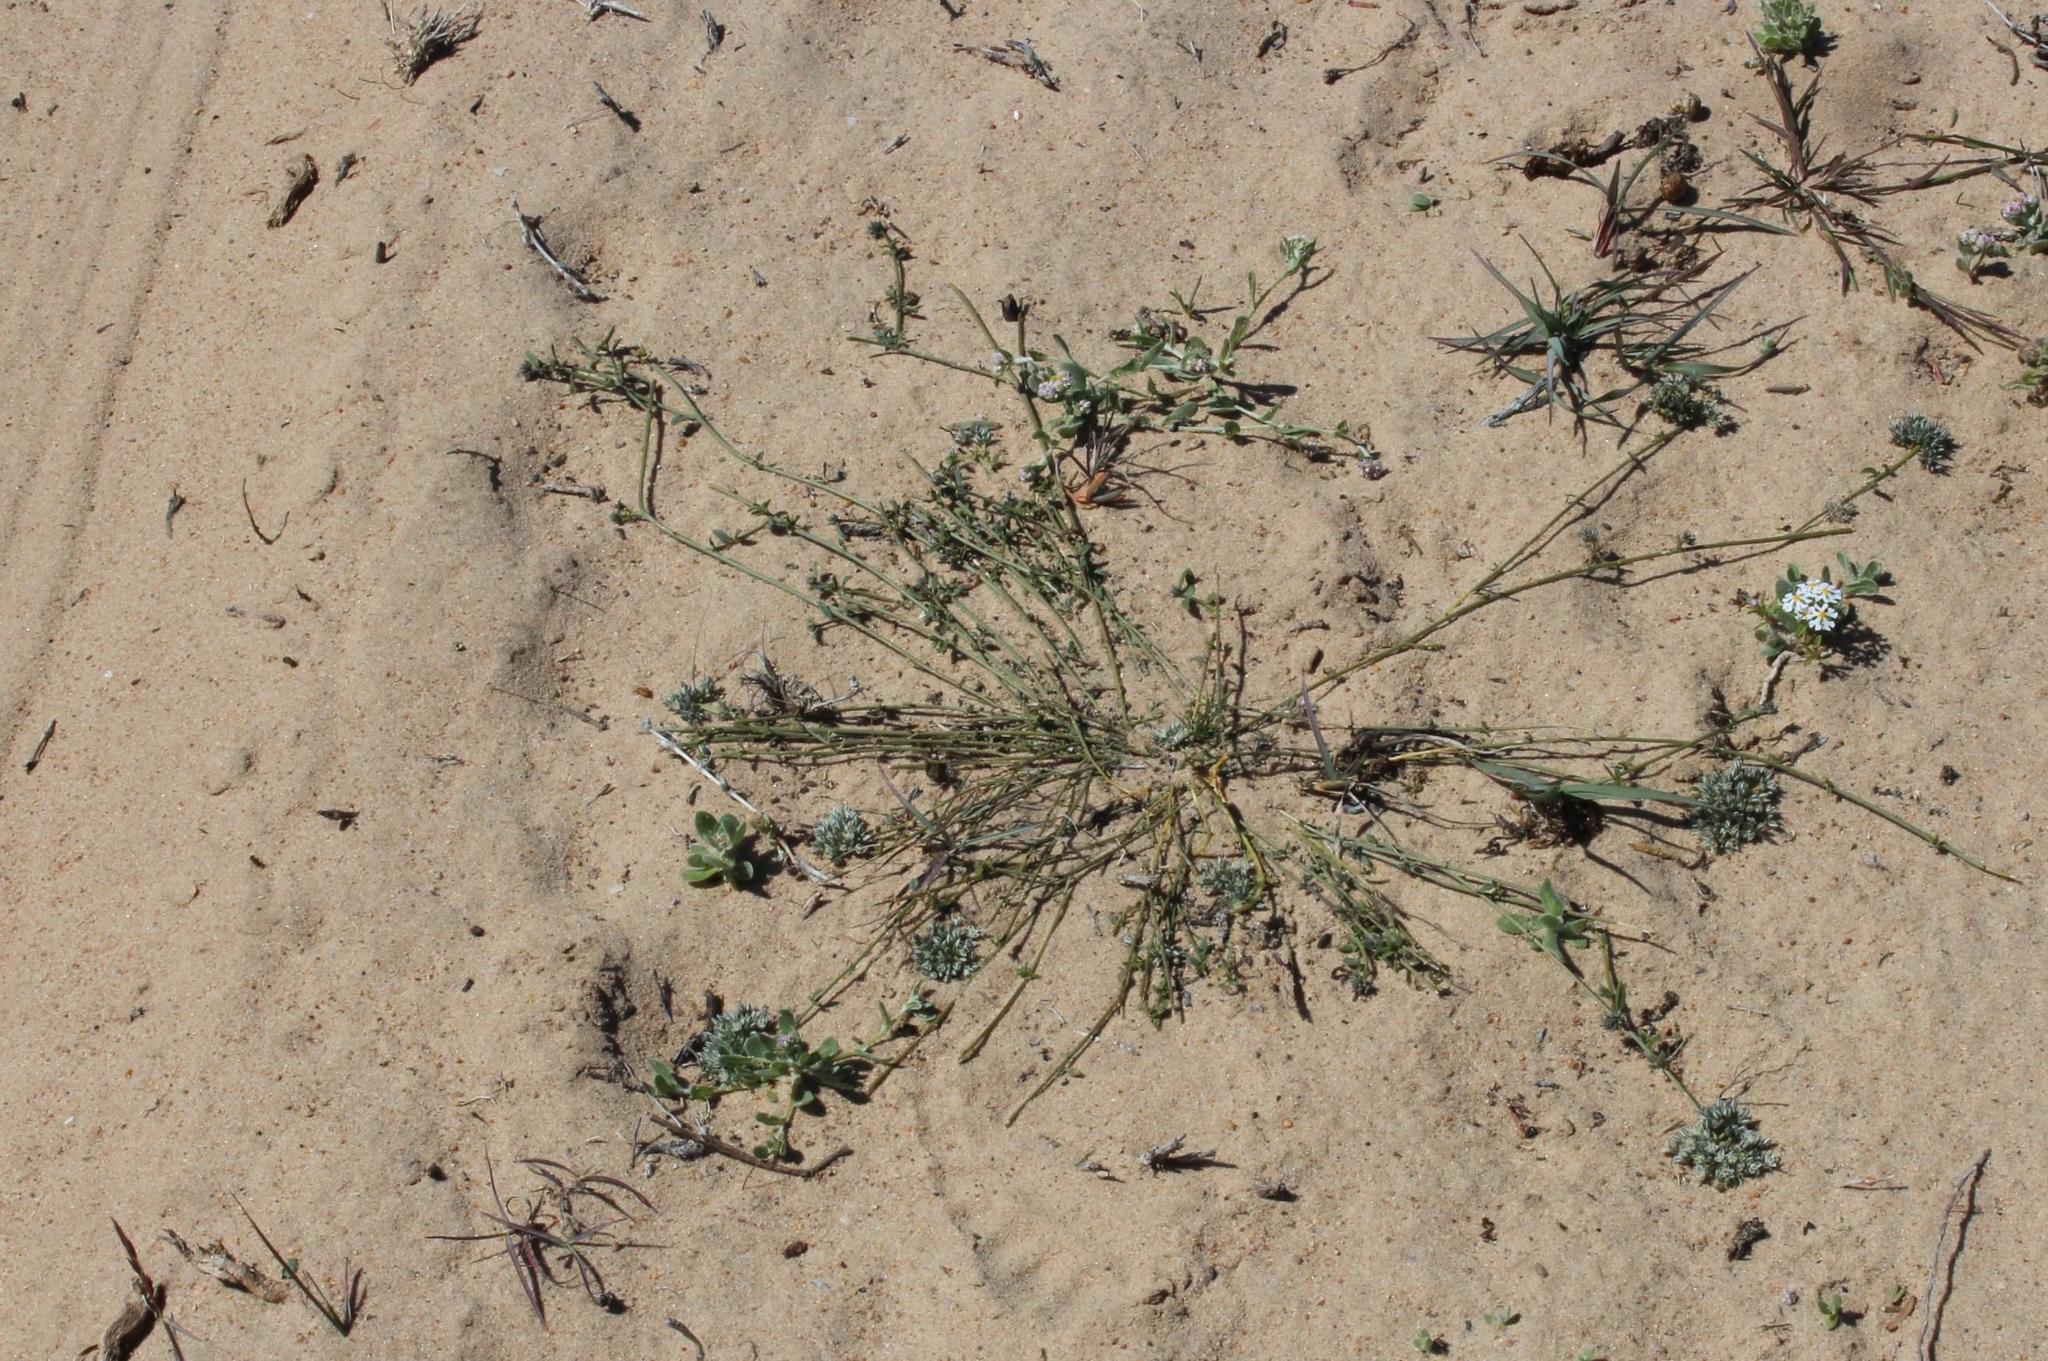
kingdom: Plantae
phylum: Tracheophyta
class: Magnoliopsida
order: Caryophyllales
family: Limeaceae
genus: Limeum
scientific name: Limeum africanum
